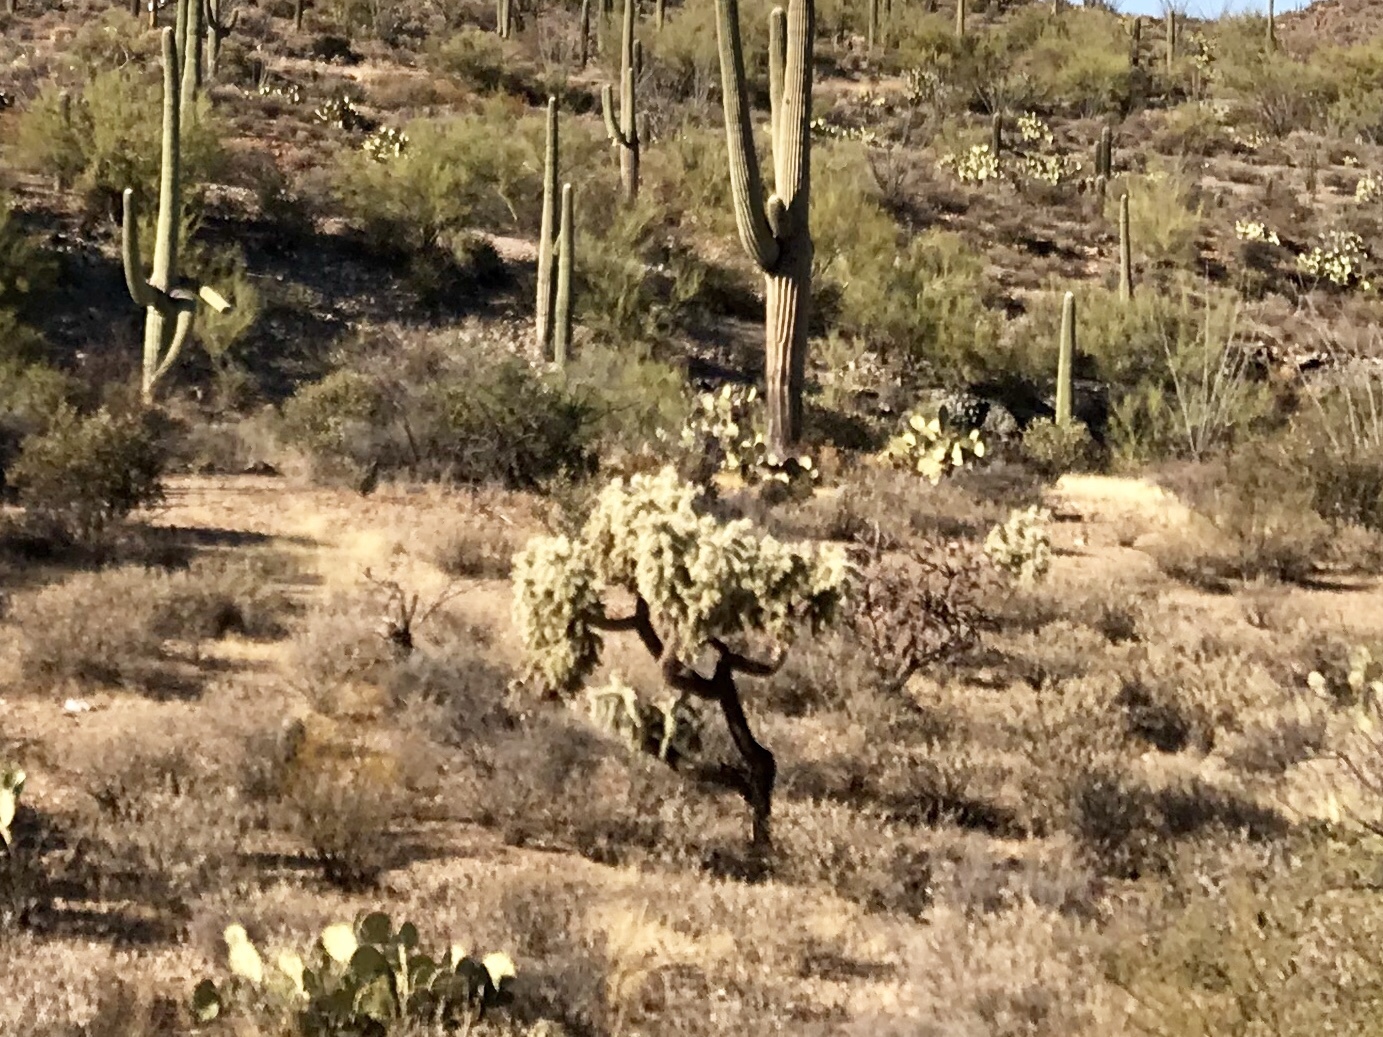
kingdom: Plantae
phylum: Tracheophyta
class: Magnoliopsida
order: Caryophyllales
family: Cactaceae
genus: Cylindropuntia
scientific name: Cylindropuntia fulgida
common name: Jumping cholla
